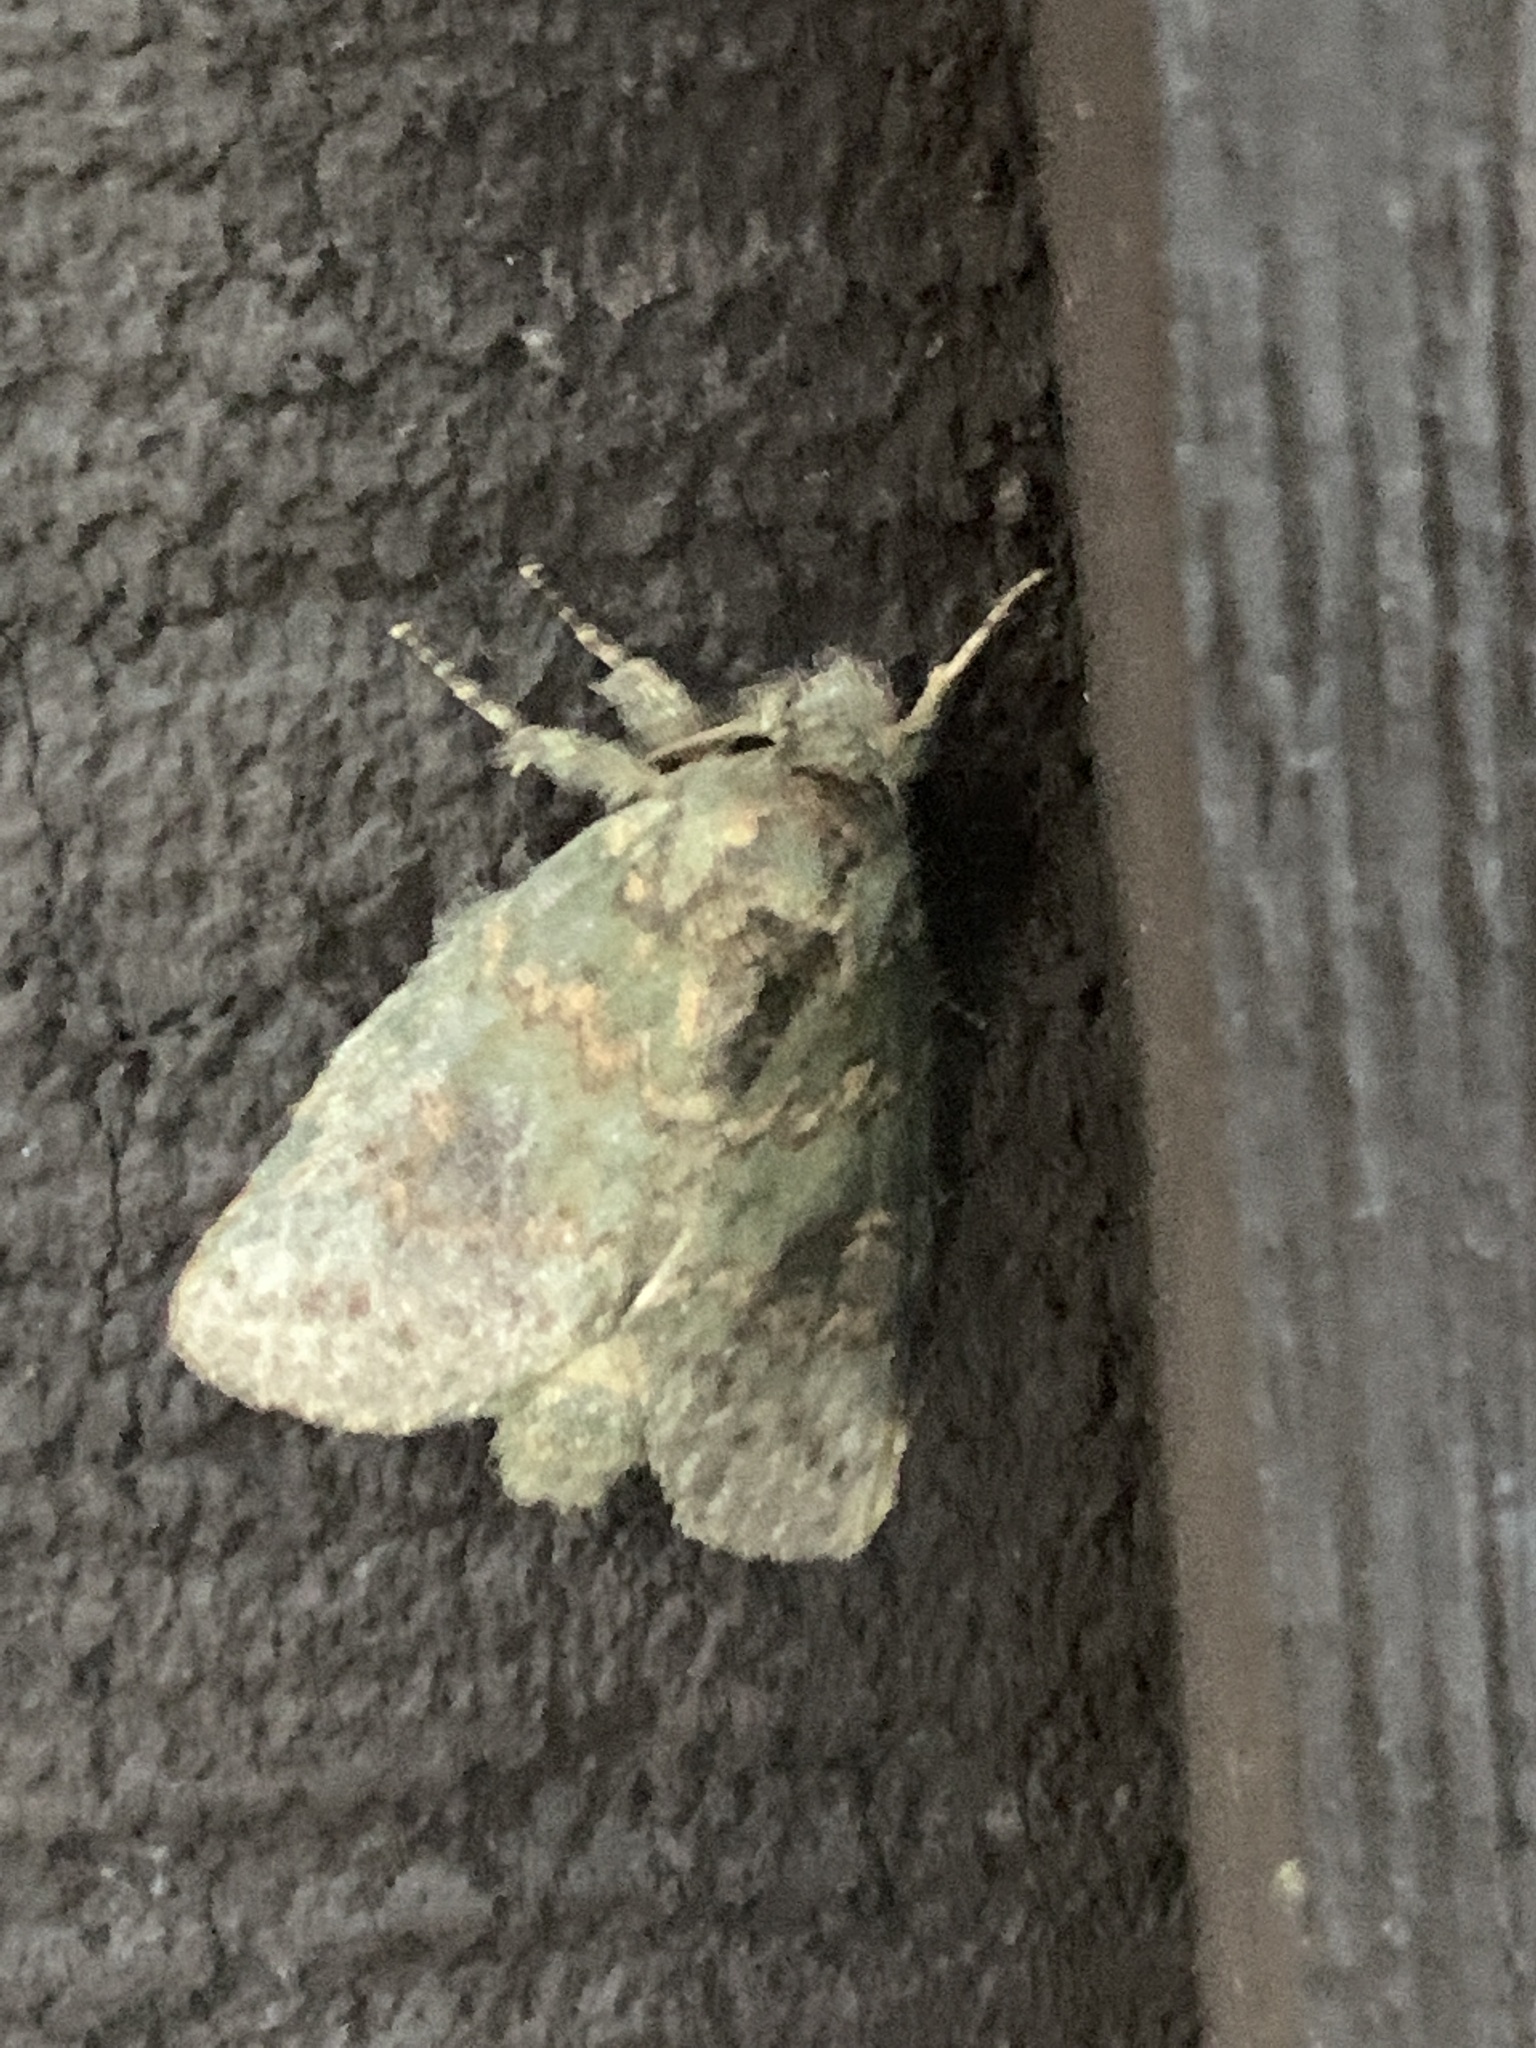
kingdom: Animalia
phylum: Arthropoda
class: Insecta
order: Lepidoptera
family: Notodontidae
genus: Disphragis
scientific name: Disphragis Cecrita biundata
